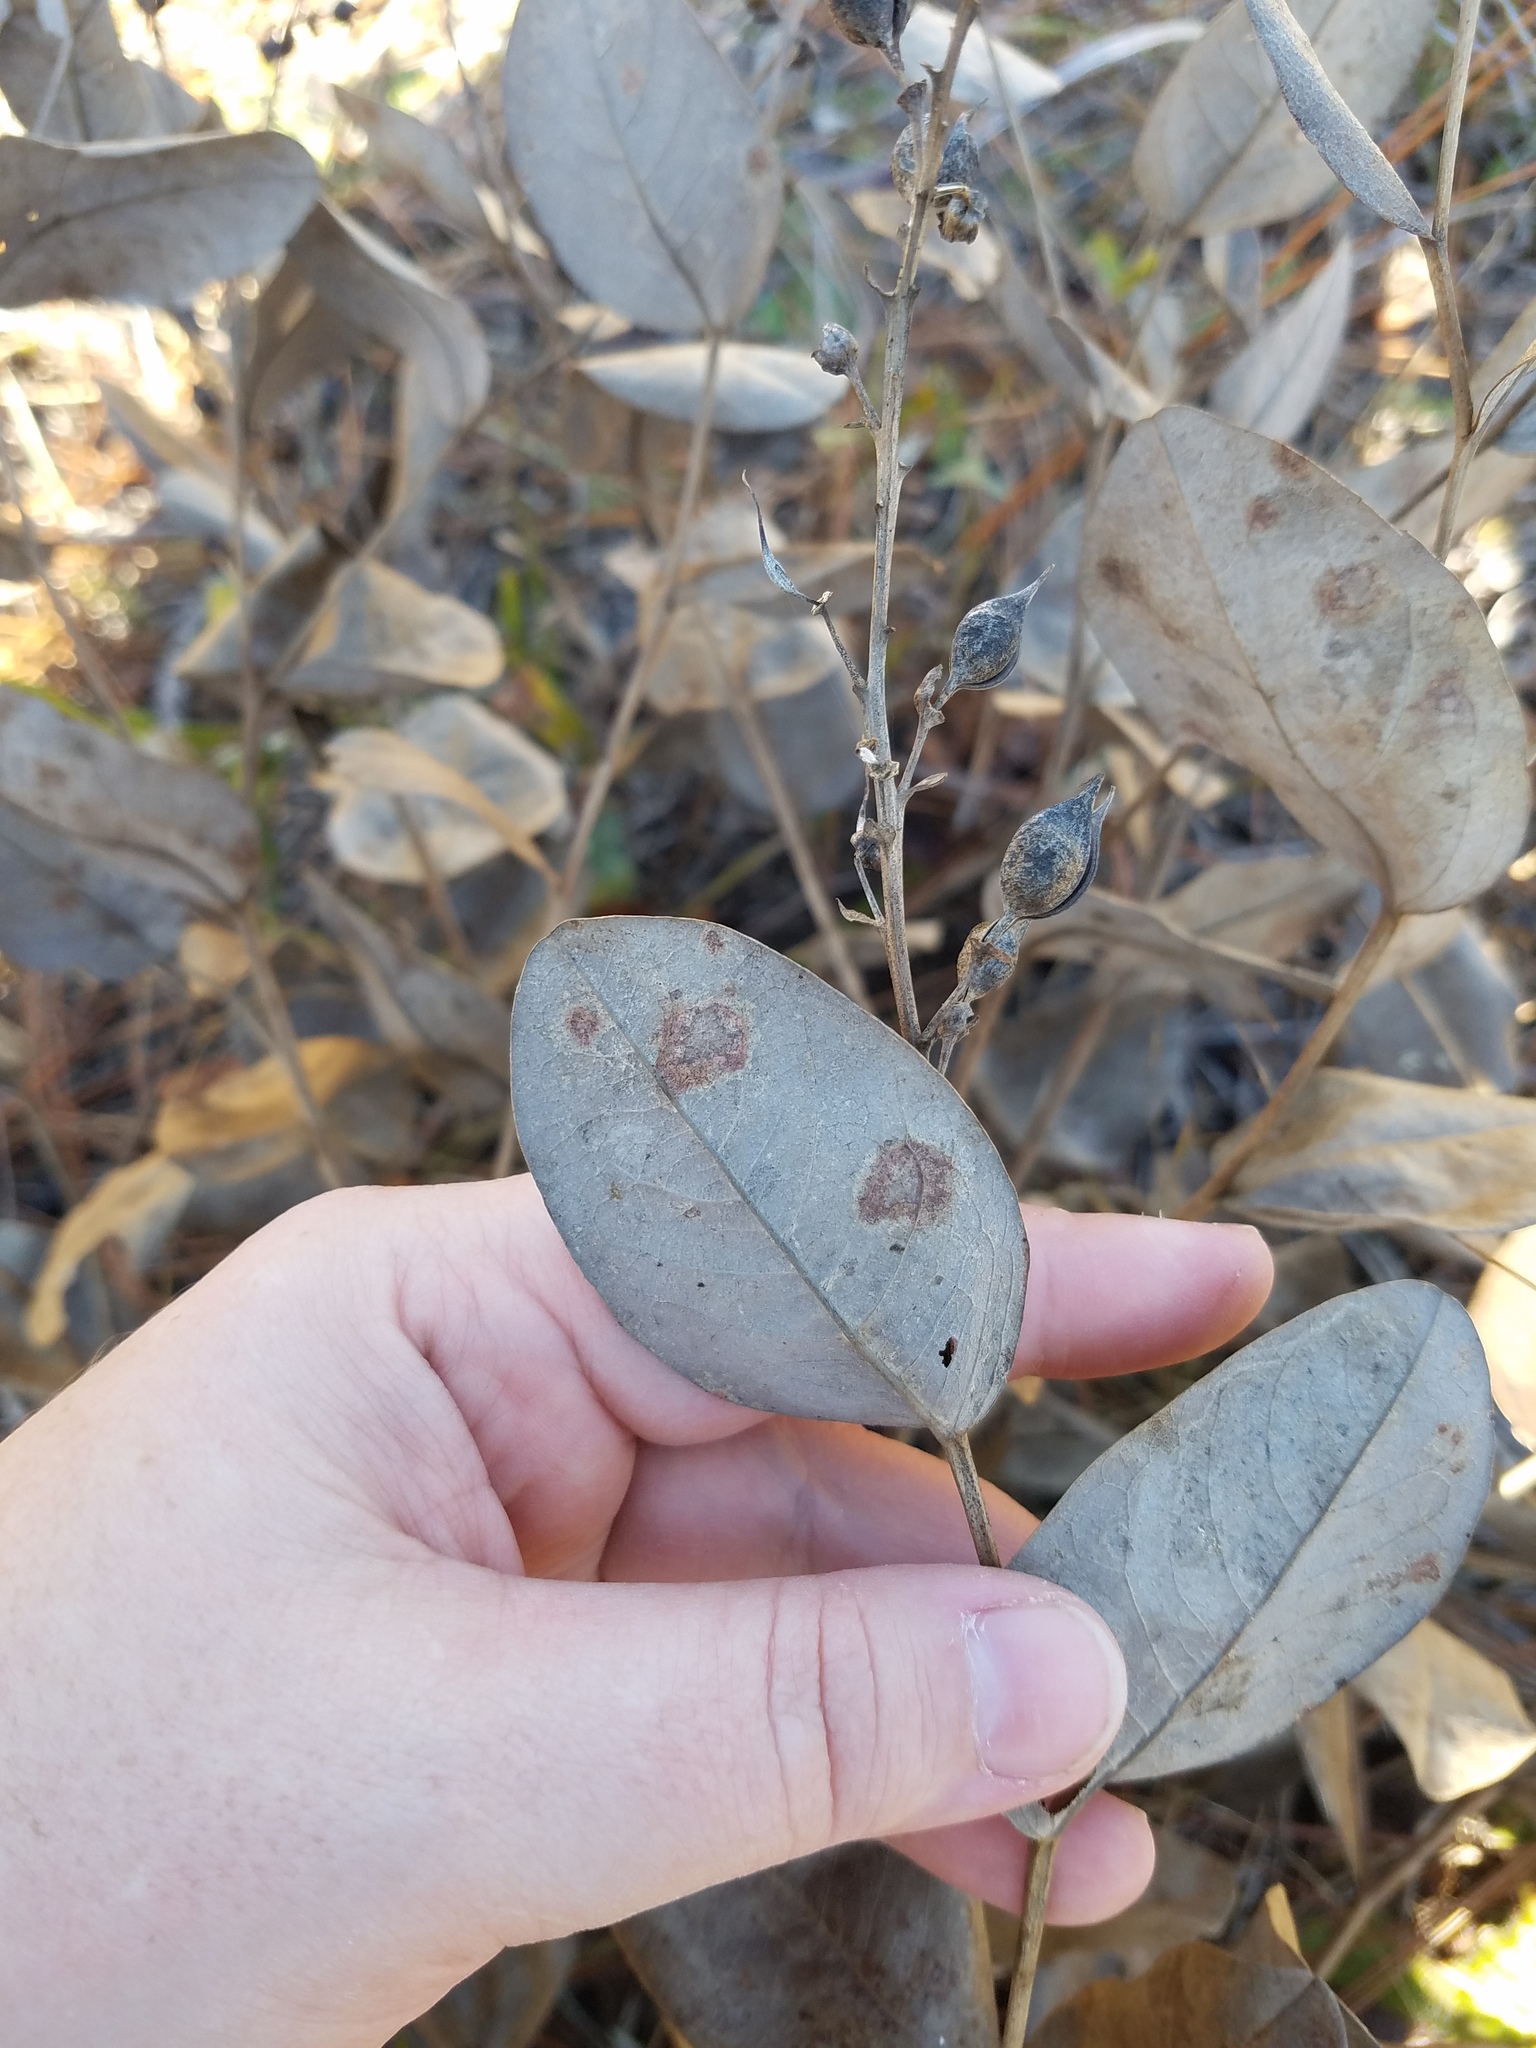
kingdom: Plantae
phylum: Tracheophyta
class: Magnoliopsida
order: Fabales
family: Fabaceae
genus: Baptisia
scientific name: Baptisia simplicifolia
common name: Scareweed
